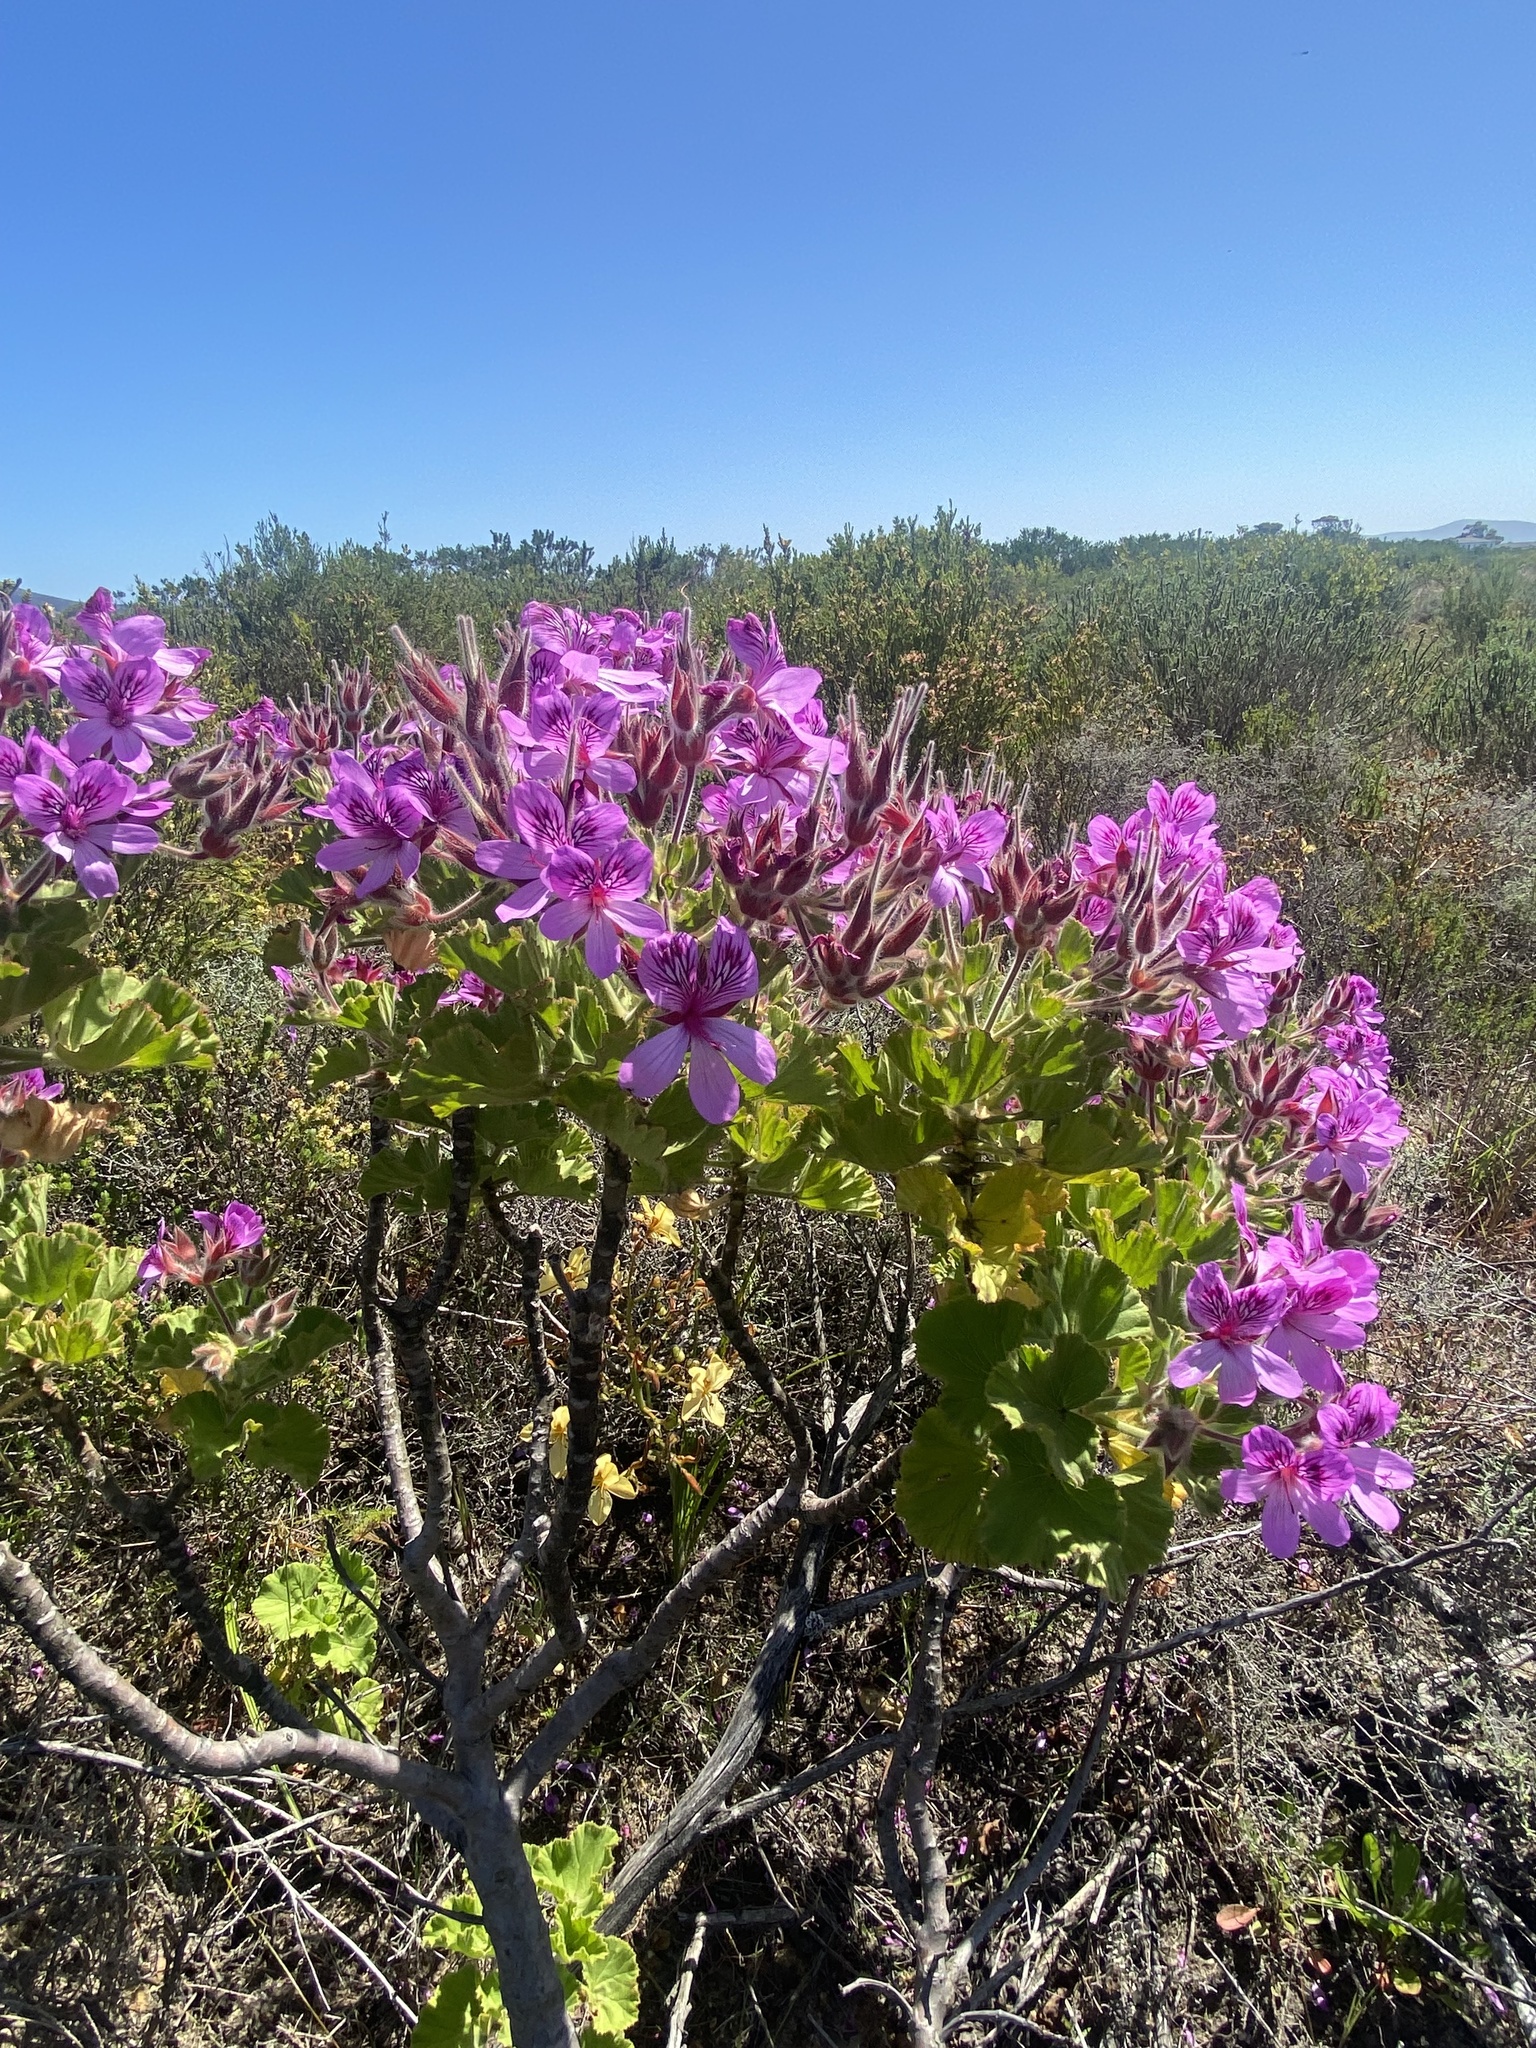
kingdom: Plantae
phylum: Tracheophyta
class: Magnoliopsida
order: Geraniales
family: Geraniaceae
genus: Pelargonium
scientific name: Pelargonium cucullatum
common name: Tree pelargonium
